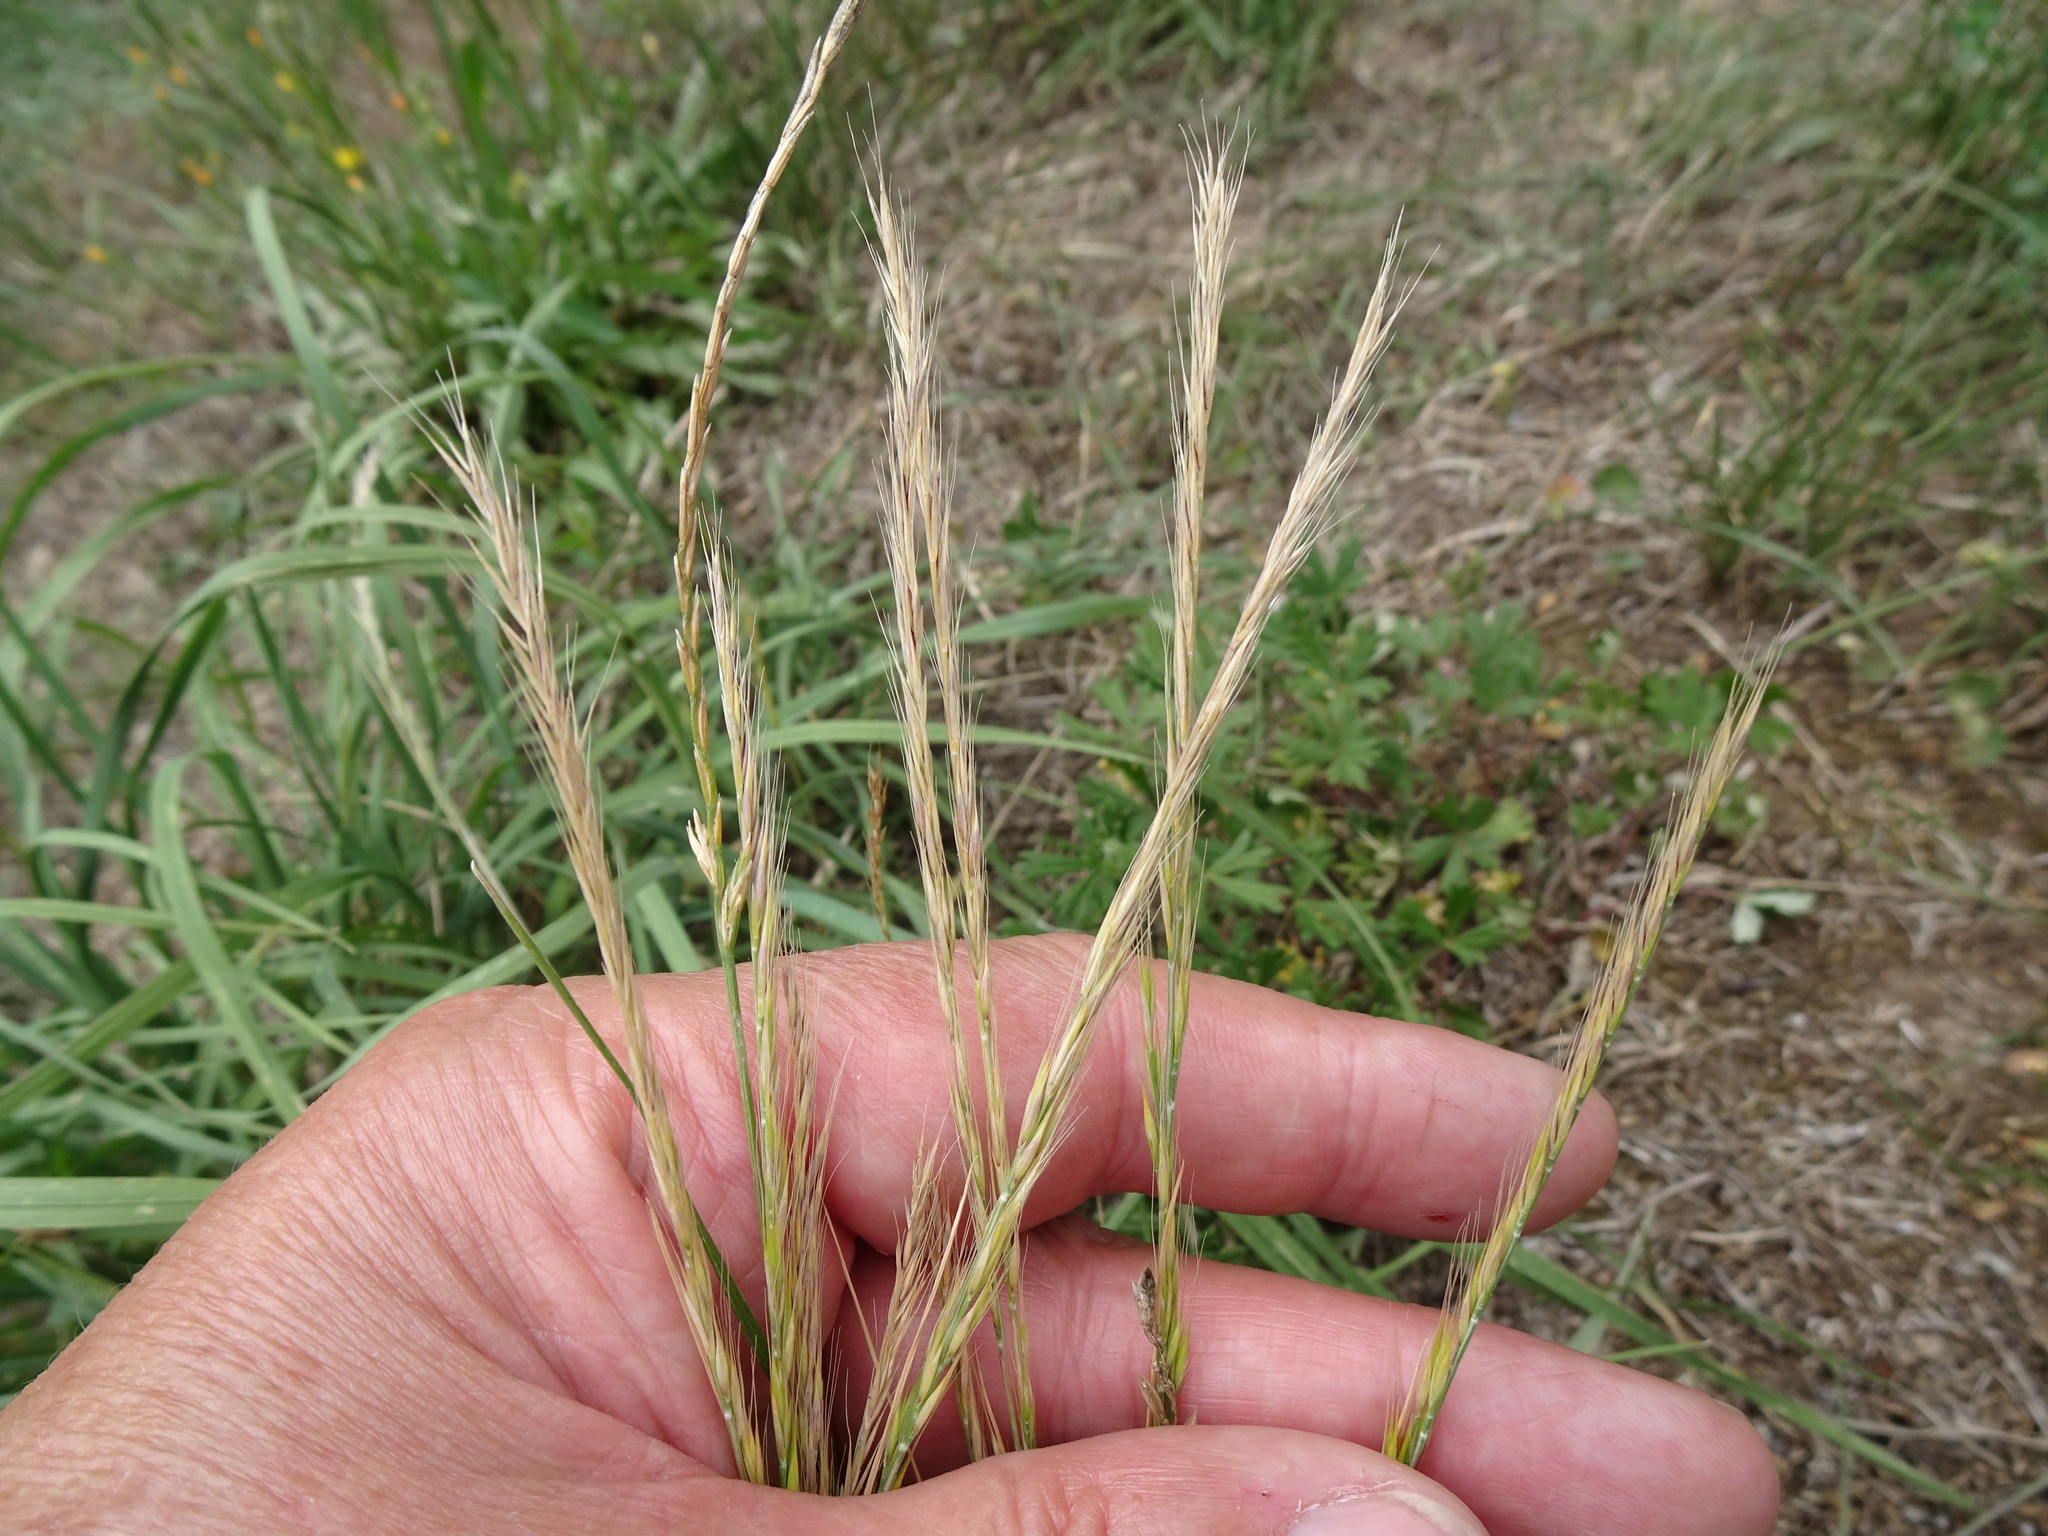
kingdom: Plantae
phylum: Tracheophyta
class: Liliopsida
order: Poales
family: Poaceae
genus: Festuca
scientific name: Festuca myuros
